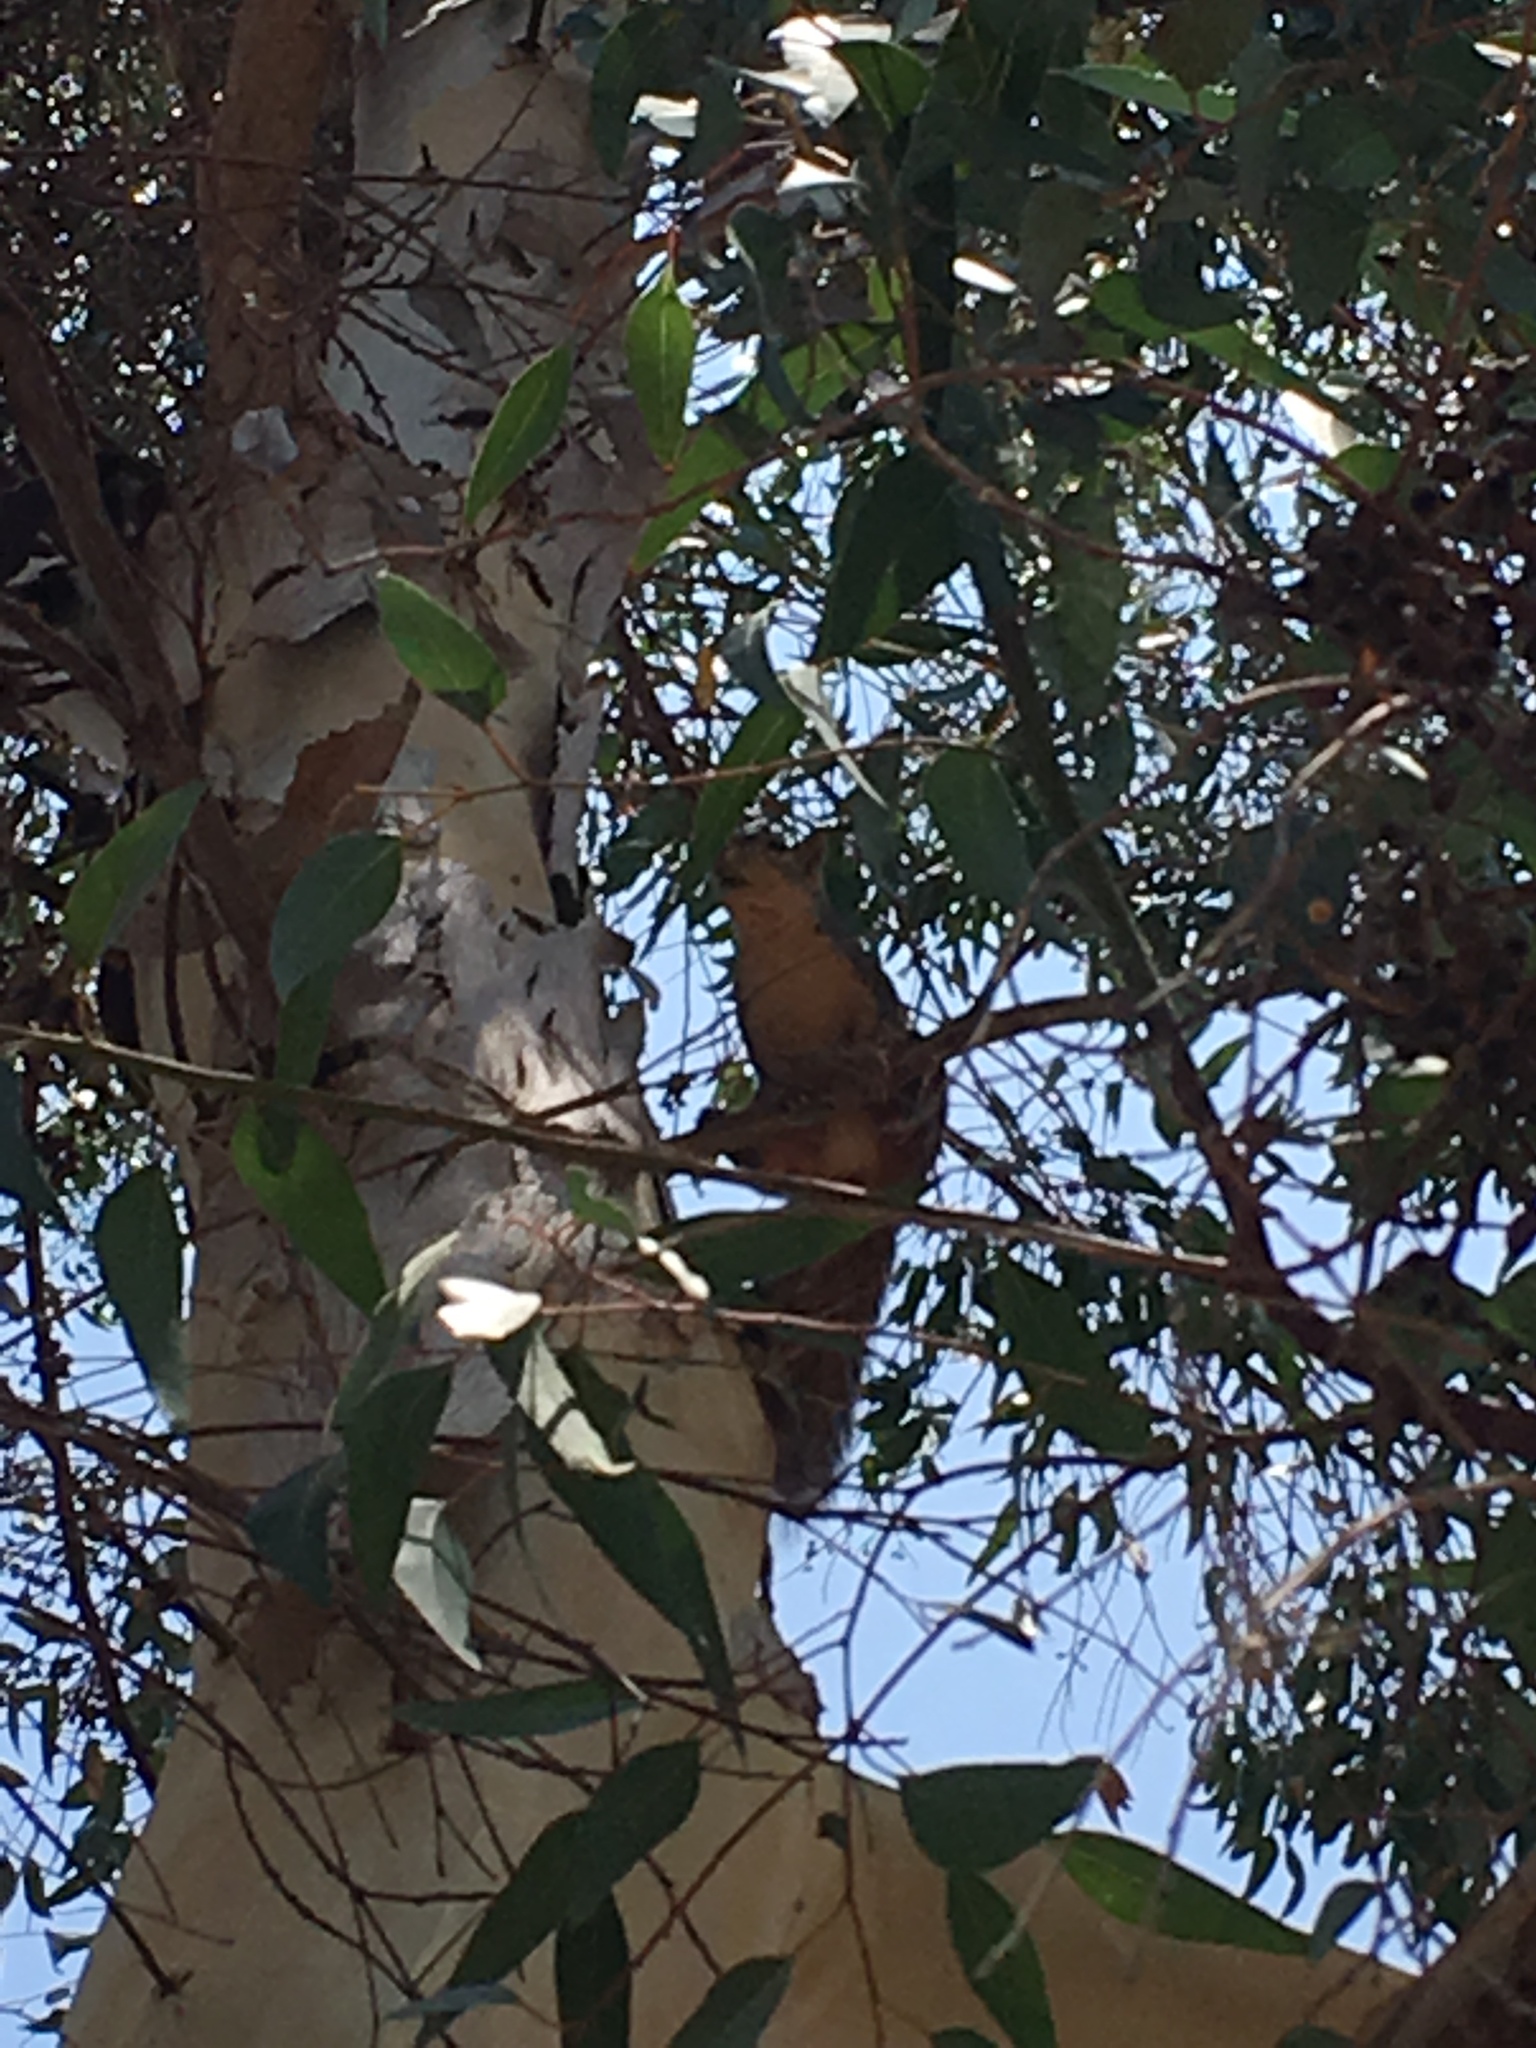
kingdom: Animalia
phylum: Chordata
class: Mammalia
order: Rodentia
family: Sciuridae
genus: Sciurus
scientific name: Sciurus niger
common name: Fox squirrel
